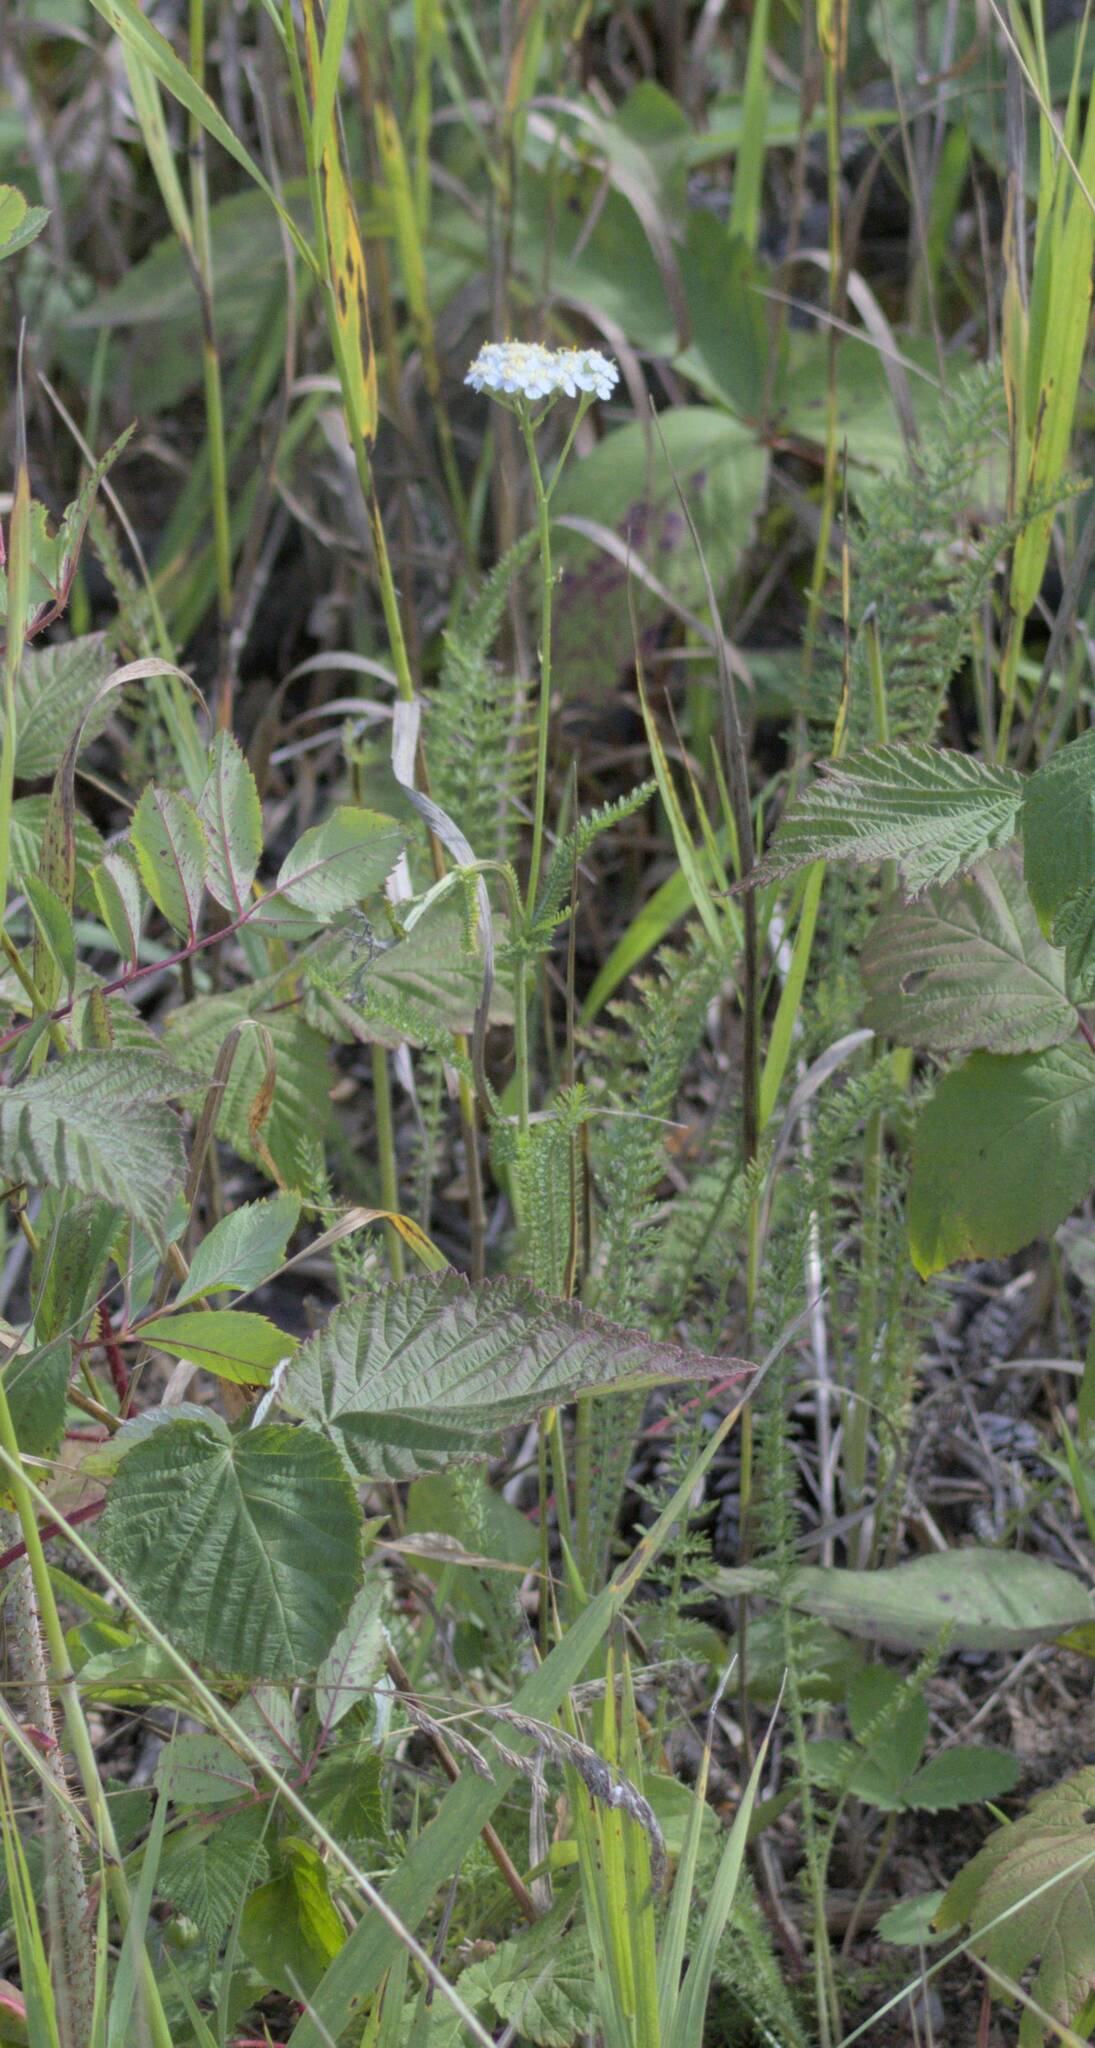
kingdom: Plantae
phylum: Tracheophyta
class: Magnoliopsida
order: Asterales
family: Asteraceae
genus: Achillea
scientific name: Achillea millefolium
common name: Yarrow
